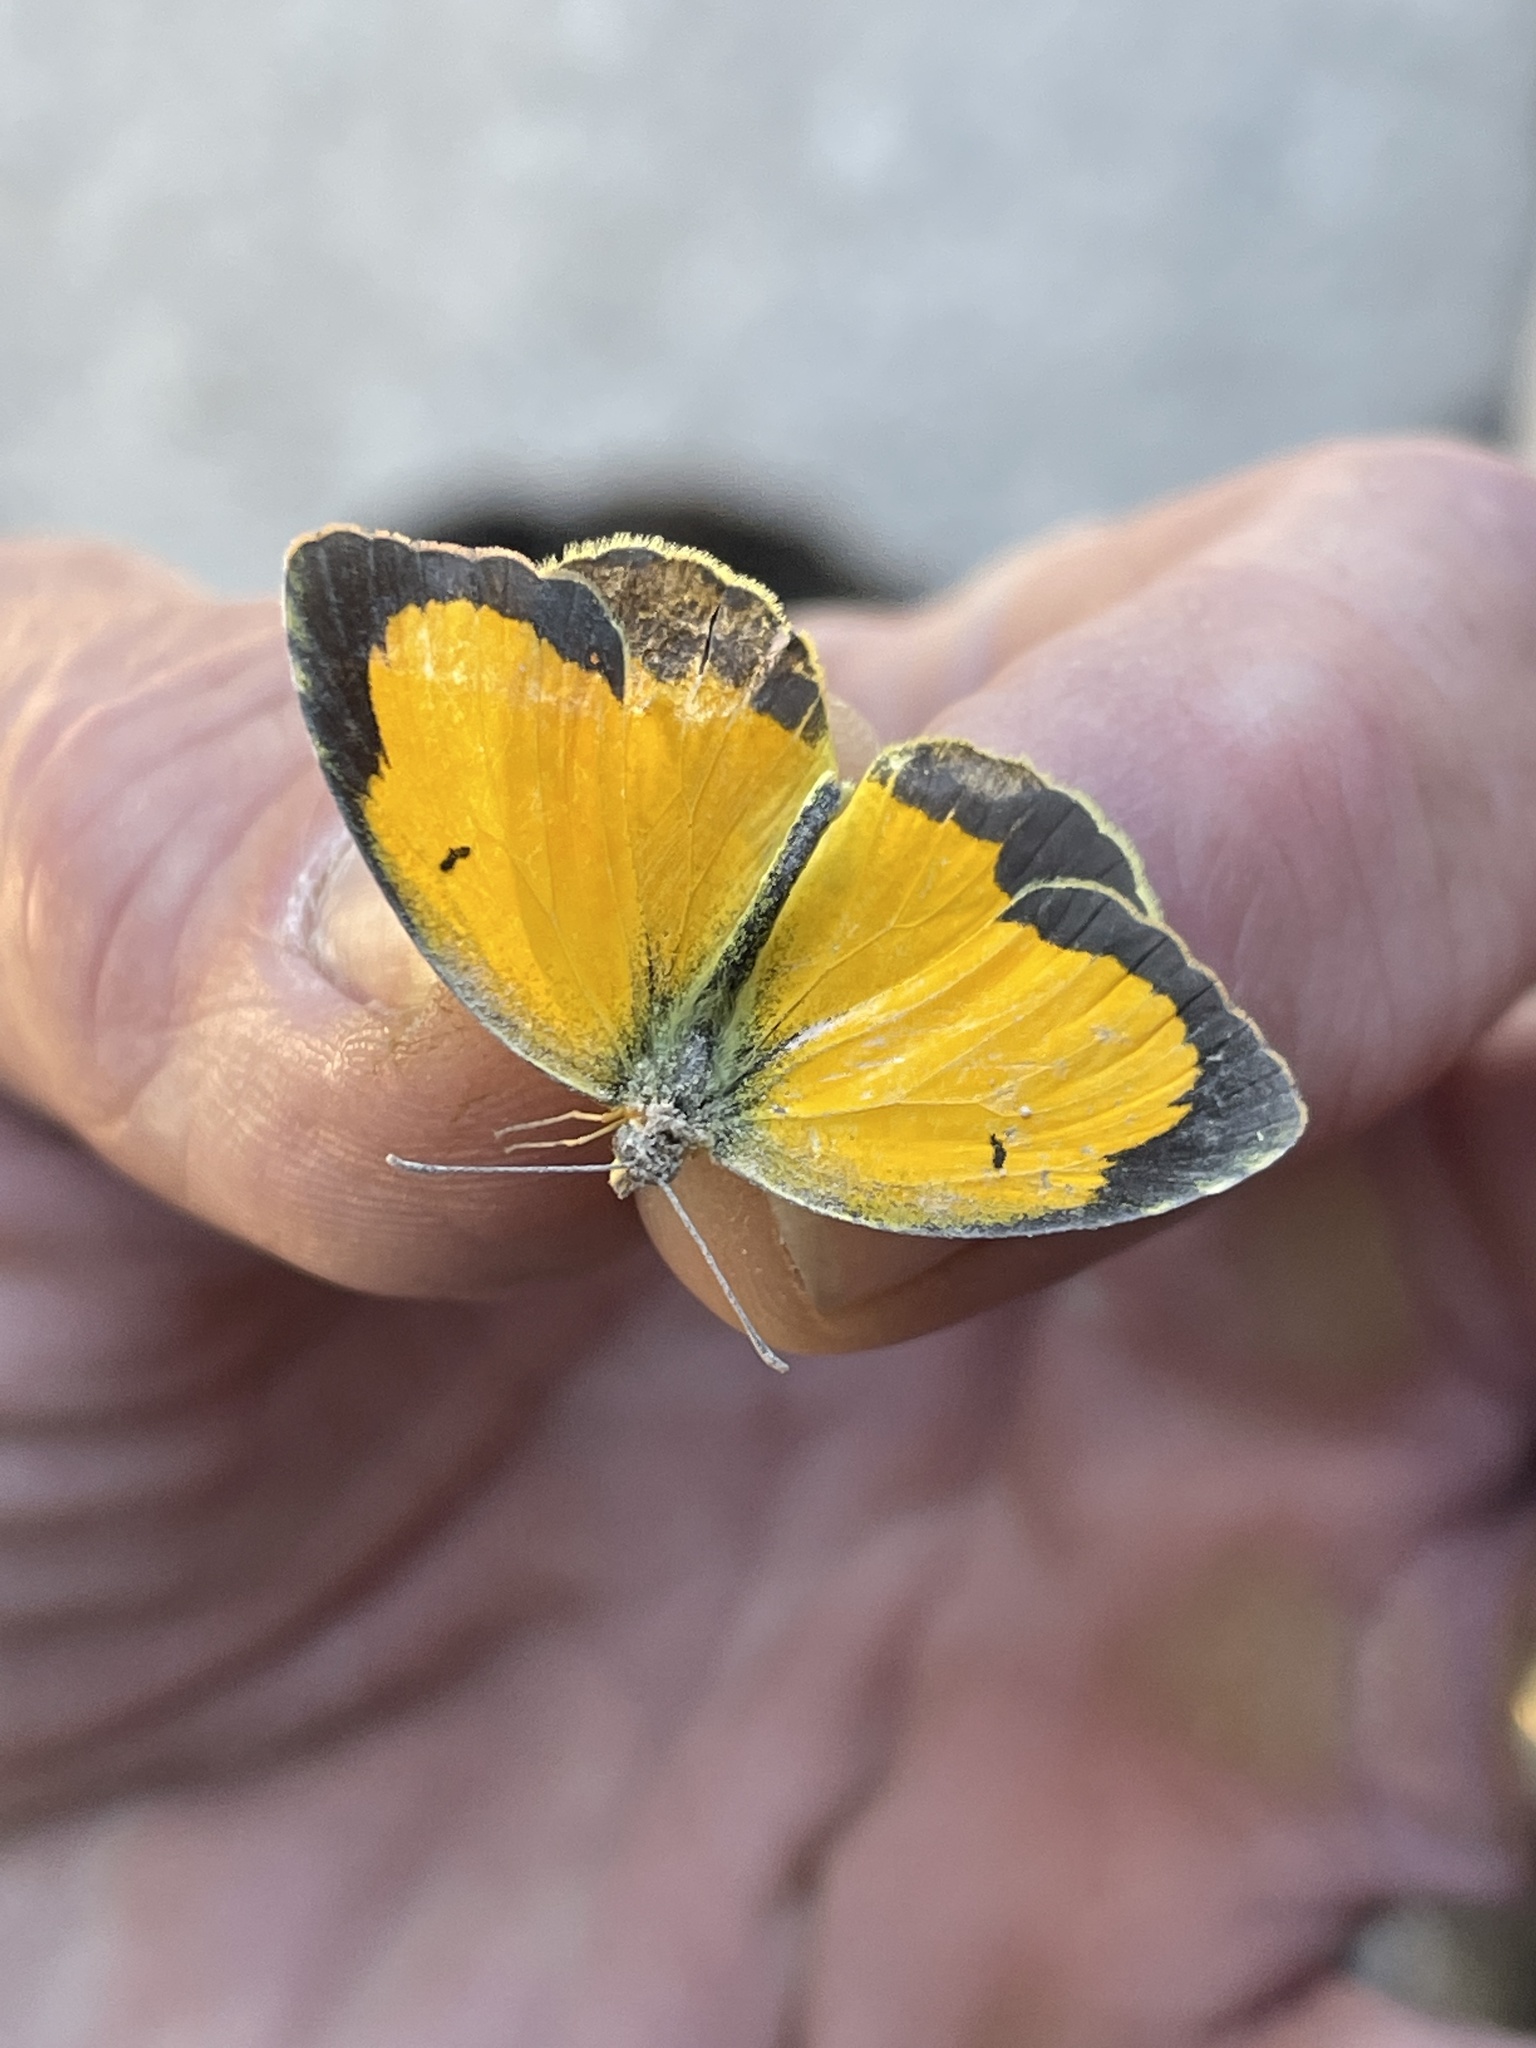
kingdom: Animalia
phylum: Arthropoda
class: Insecta
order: Lepidoptera
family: Pieridae
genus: Abaeis
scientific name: Abaeis nicippe
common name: Sleepy orange
